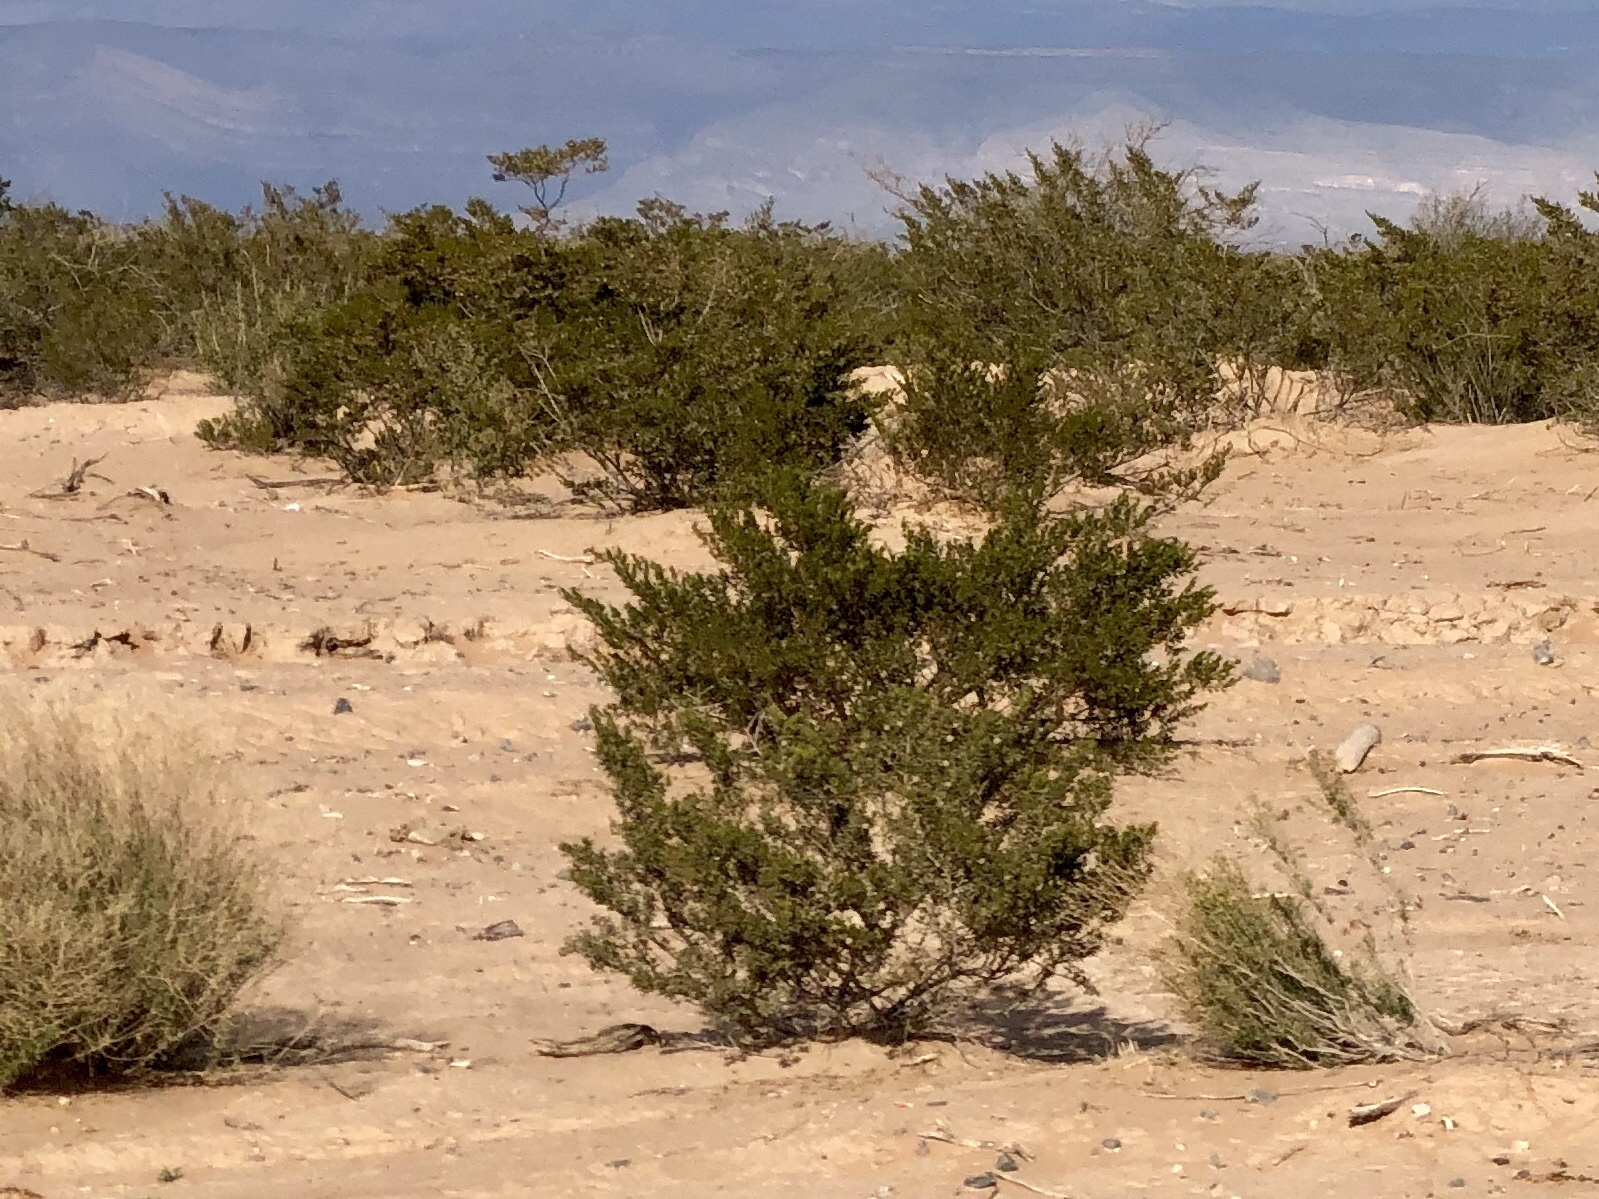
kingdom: Plantae
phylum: Tracheophyta
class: Magnoliopsida
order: Zygophyllales
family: Zygophyllaceae
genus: Larrea
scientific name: Larrea tridentata
